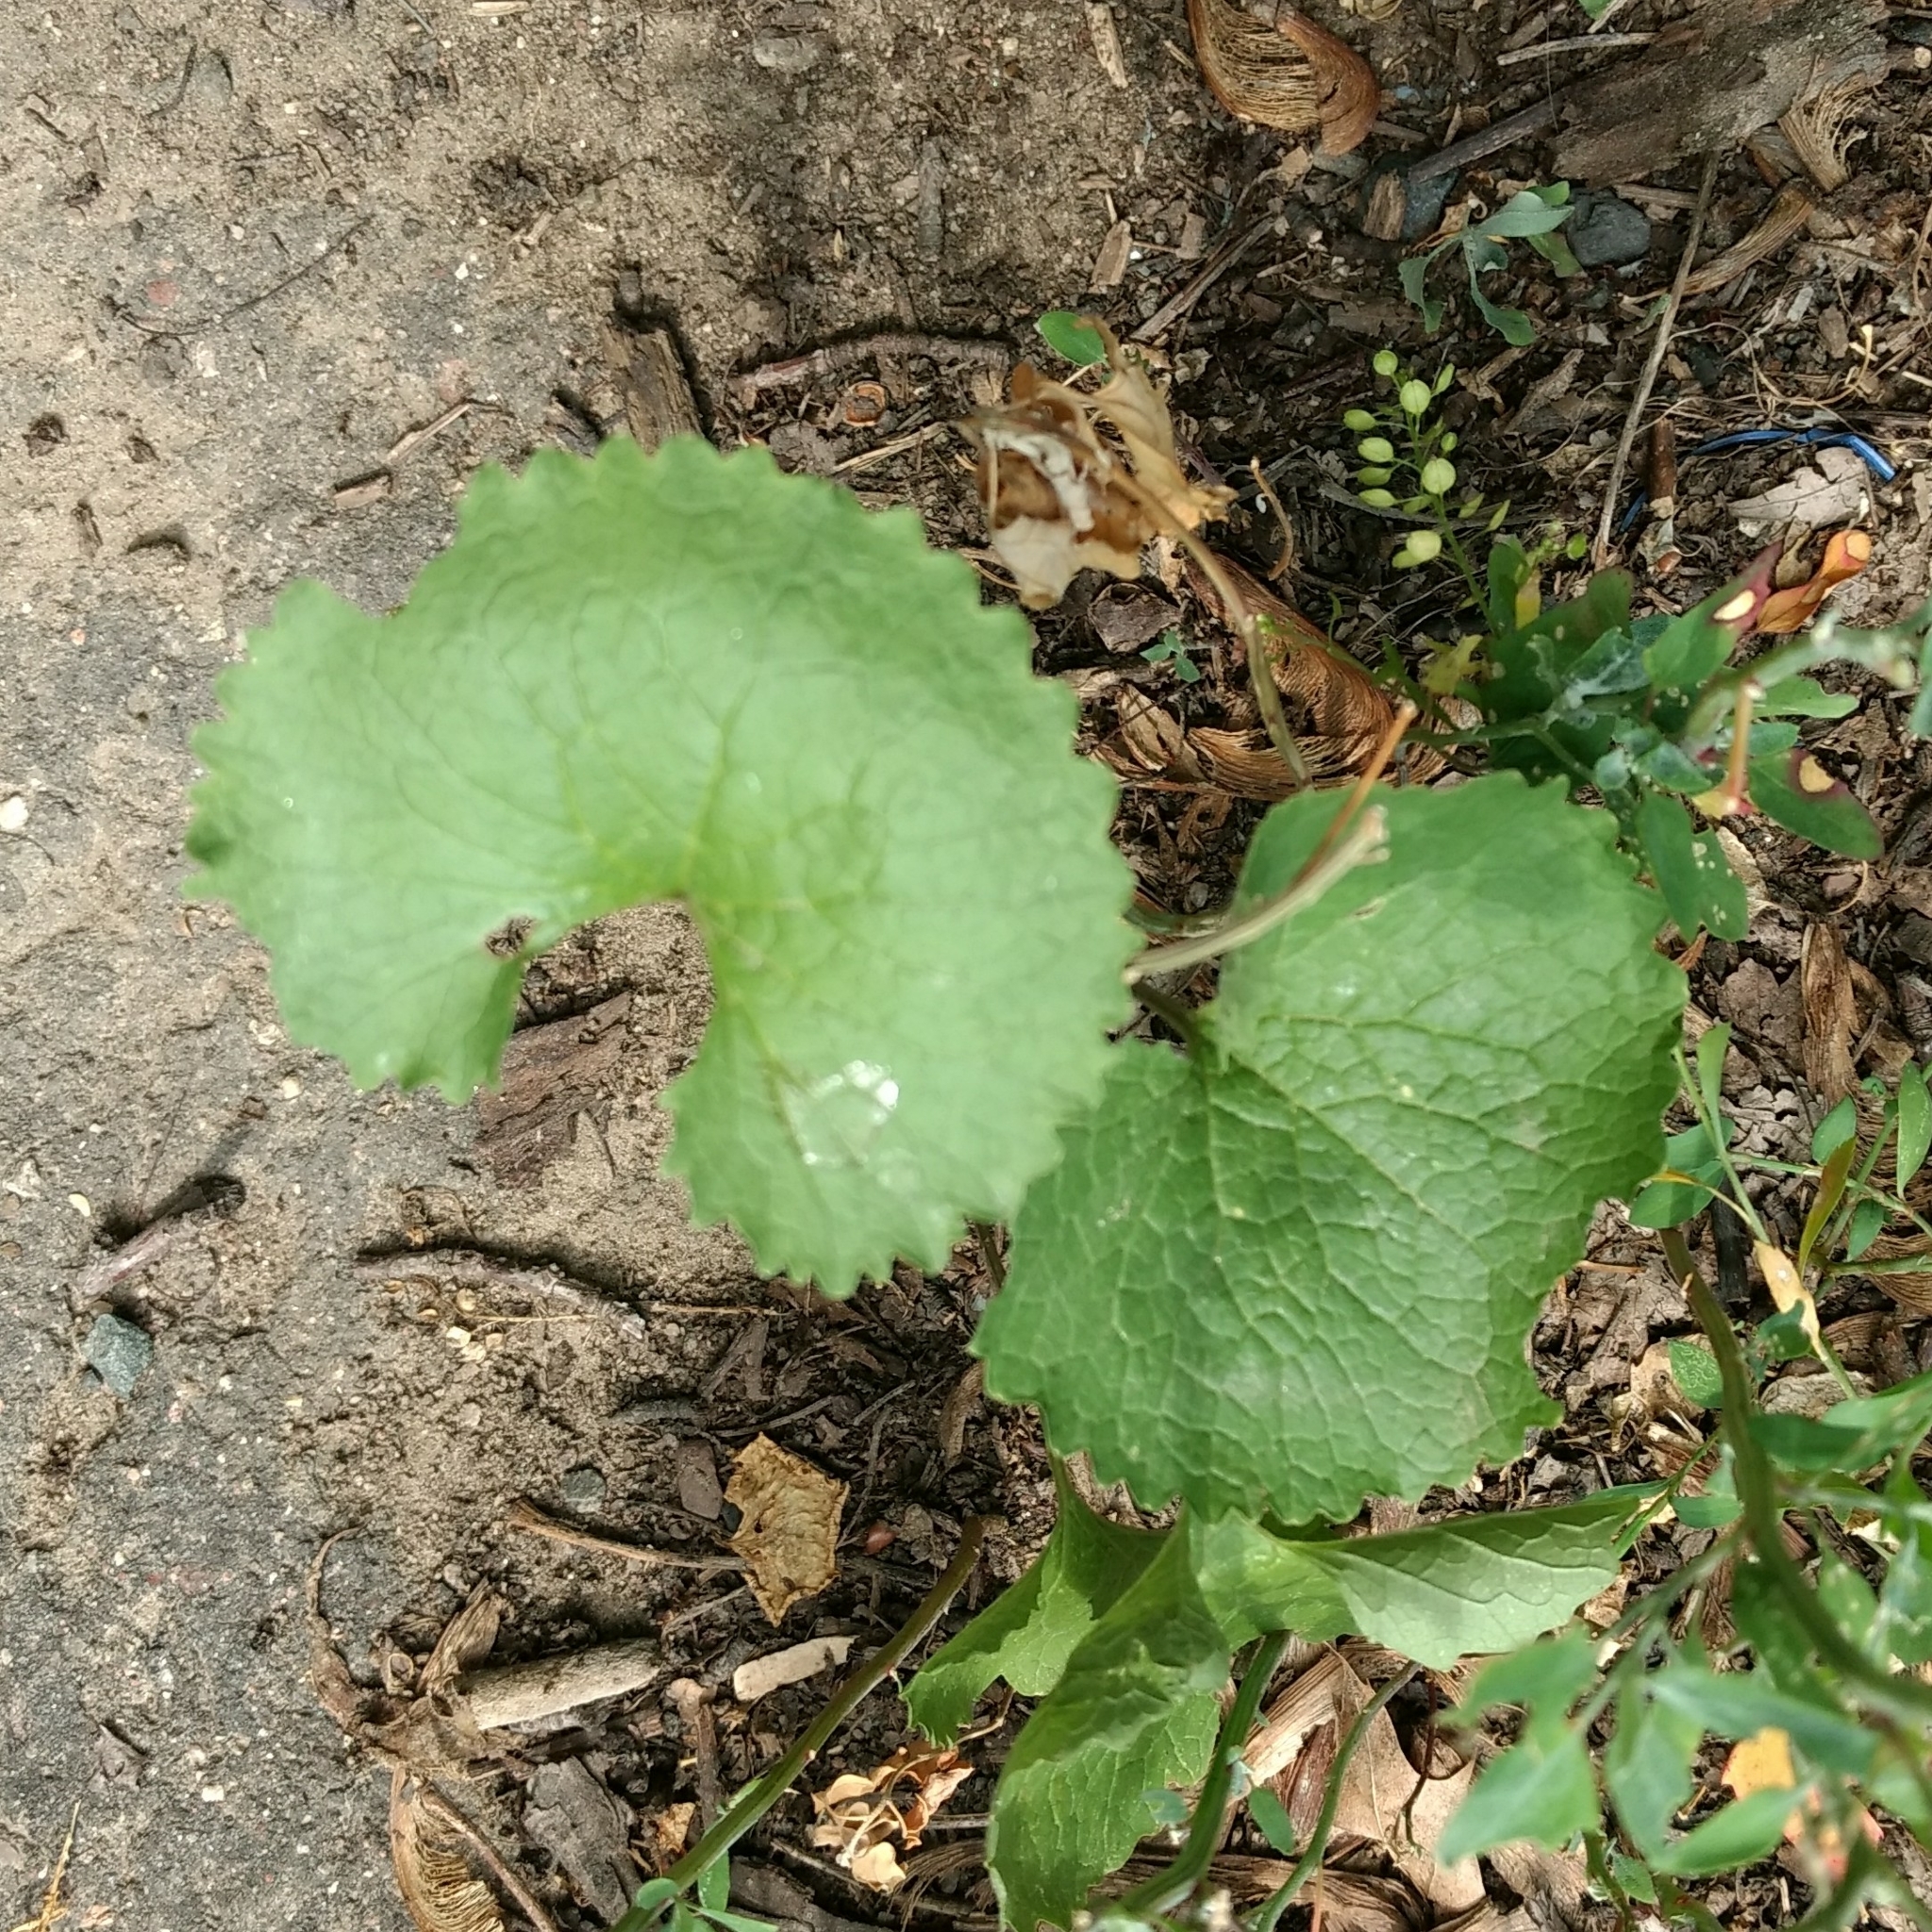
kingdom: Plantae
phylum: Tracheophyta
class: Magnoliopsida
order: Brassicales
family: Brassicaceae
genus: Alliaria
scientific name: Alliaria petiolata
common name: Garlic mustard
